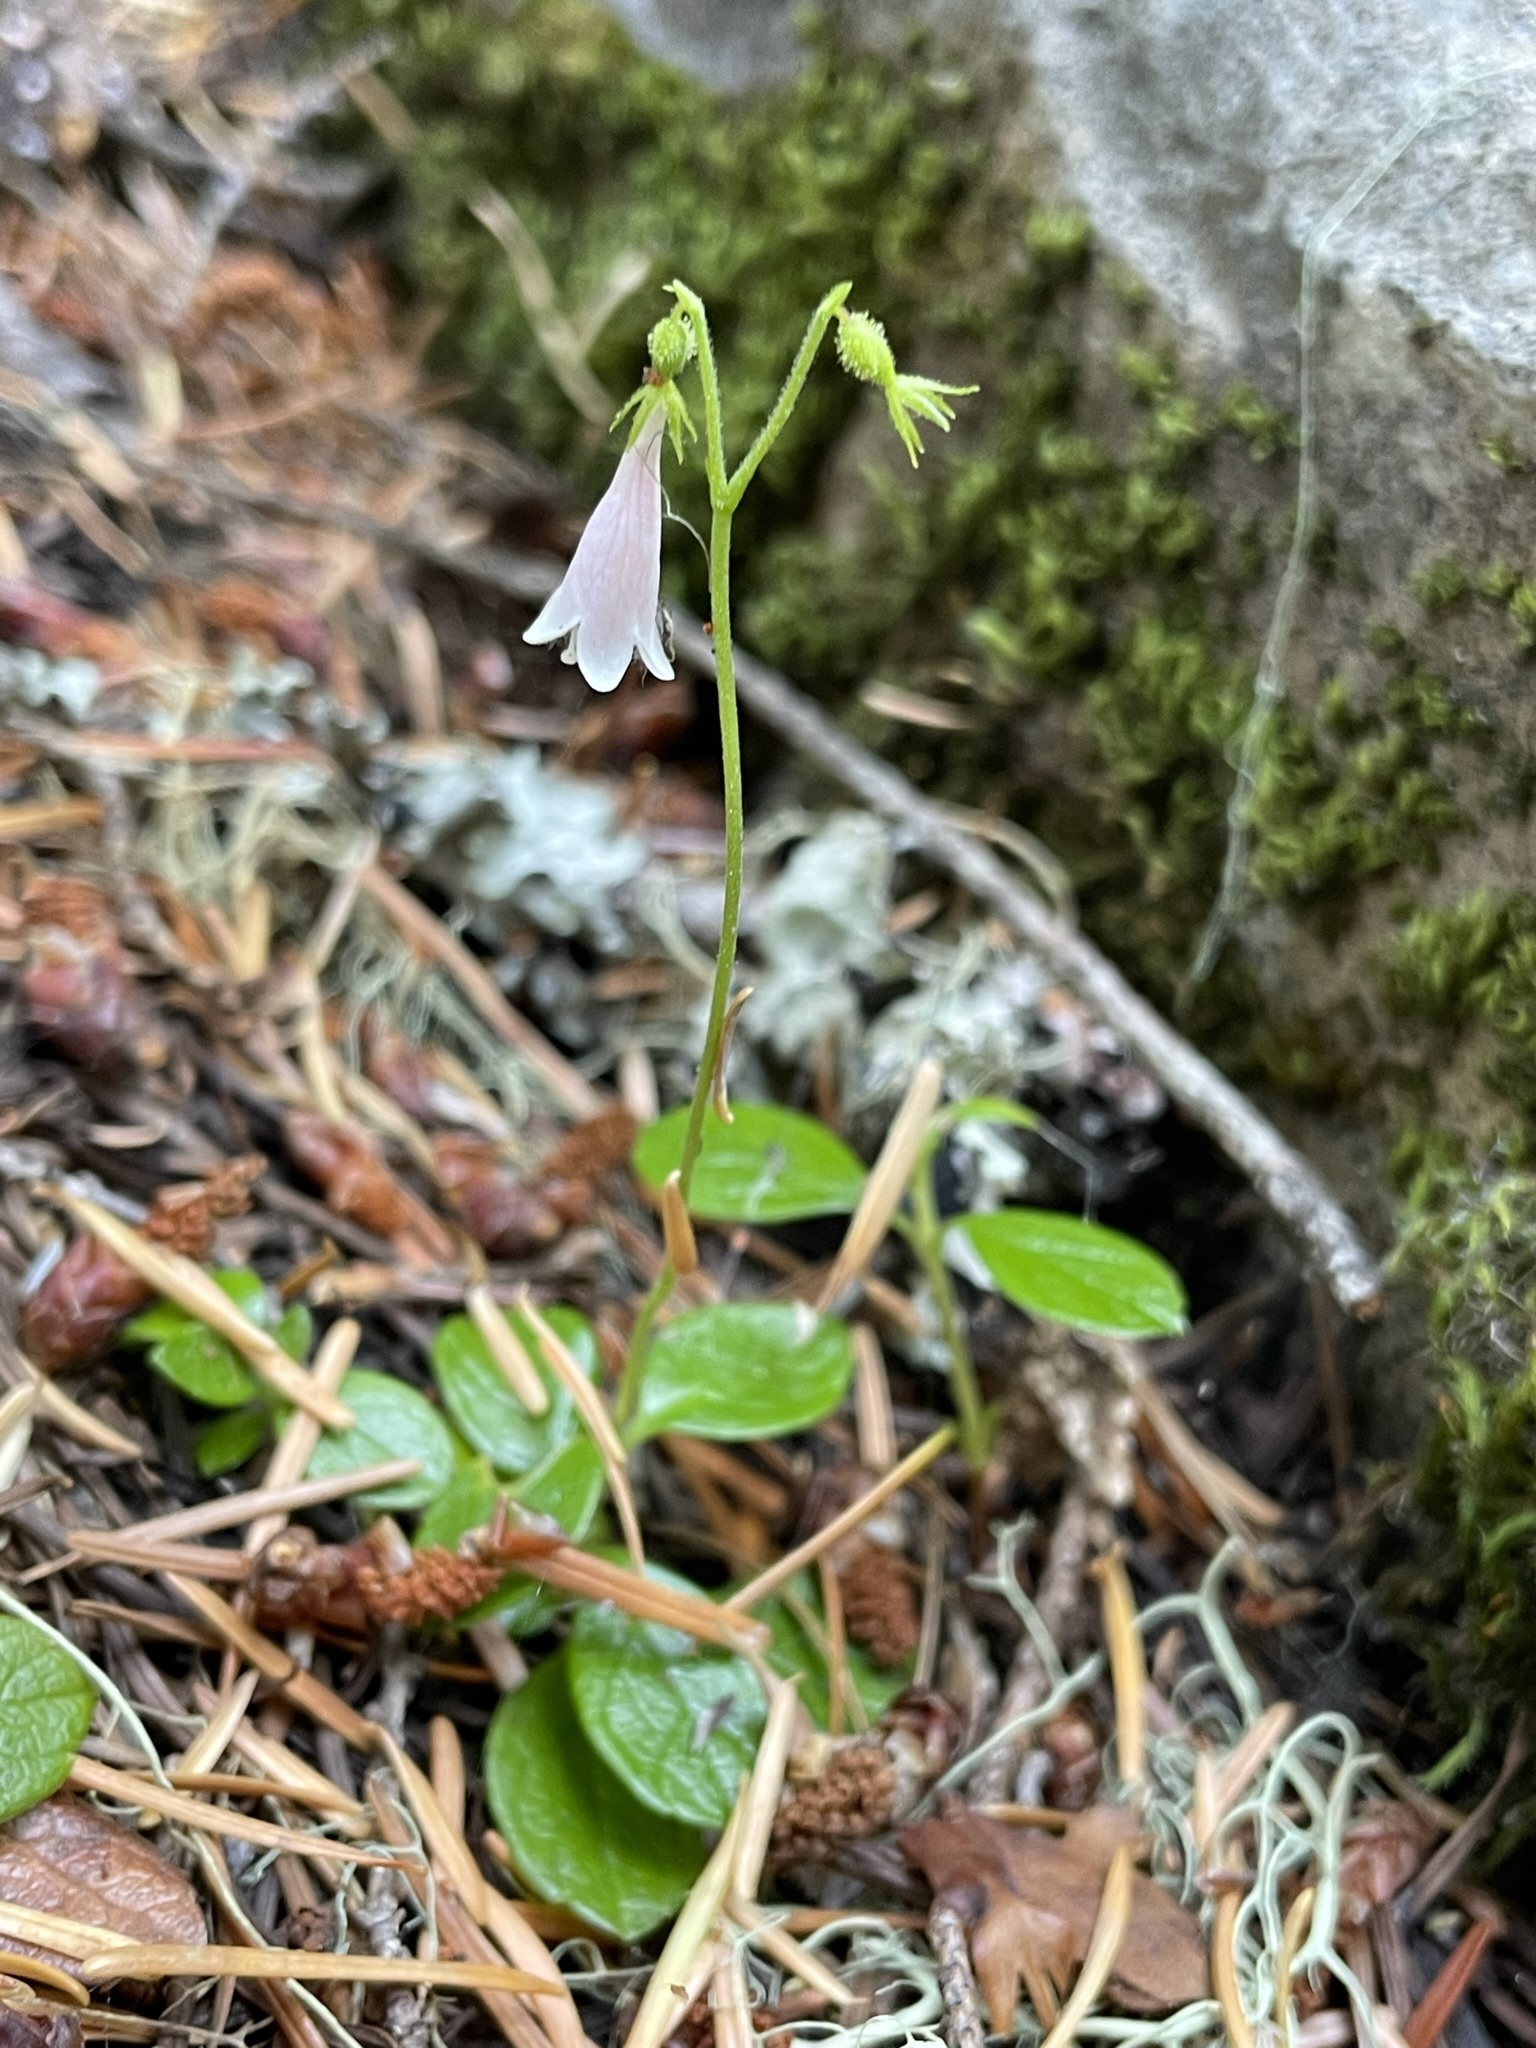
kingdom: Plantae
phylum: Tracheophyta
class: Magnoliopsida
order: Dipsacales
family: Caprifoliaceae
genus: Linnaea
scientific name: Linnaea borealis
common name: Twinflower
